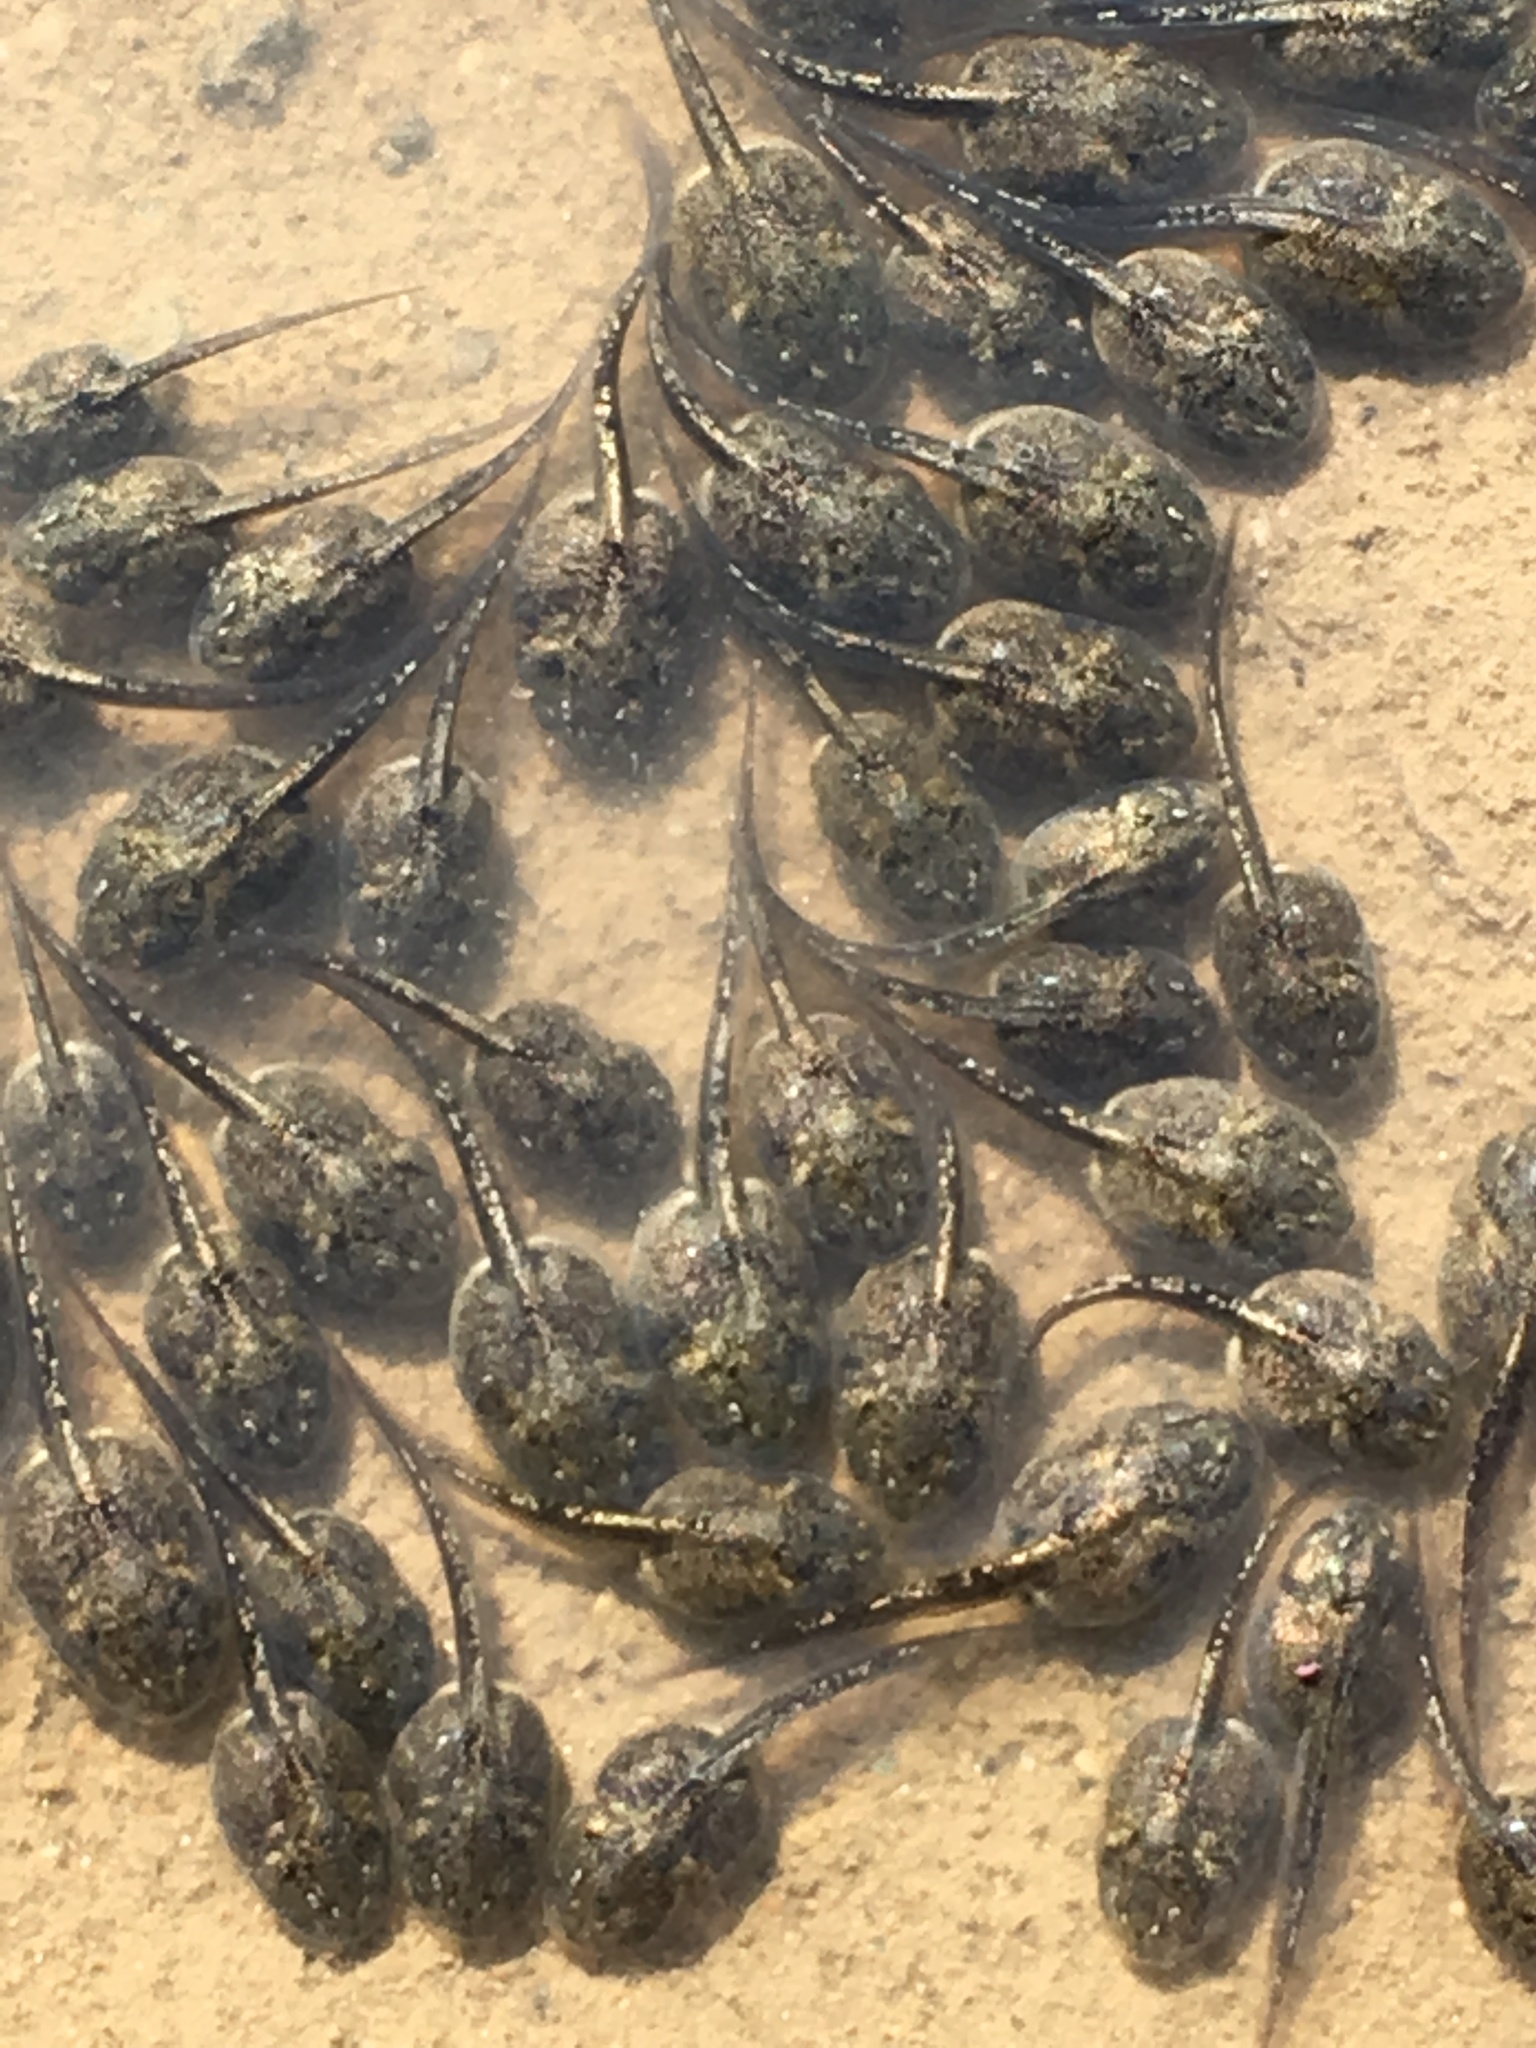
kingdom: Animalia
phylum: Chordata
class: Amphibia
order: Anura
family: Scaphiopodidae
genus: Spea
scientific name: Spea hammondii
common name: Western spadefoot toad
